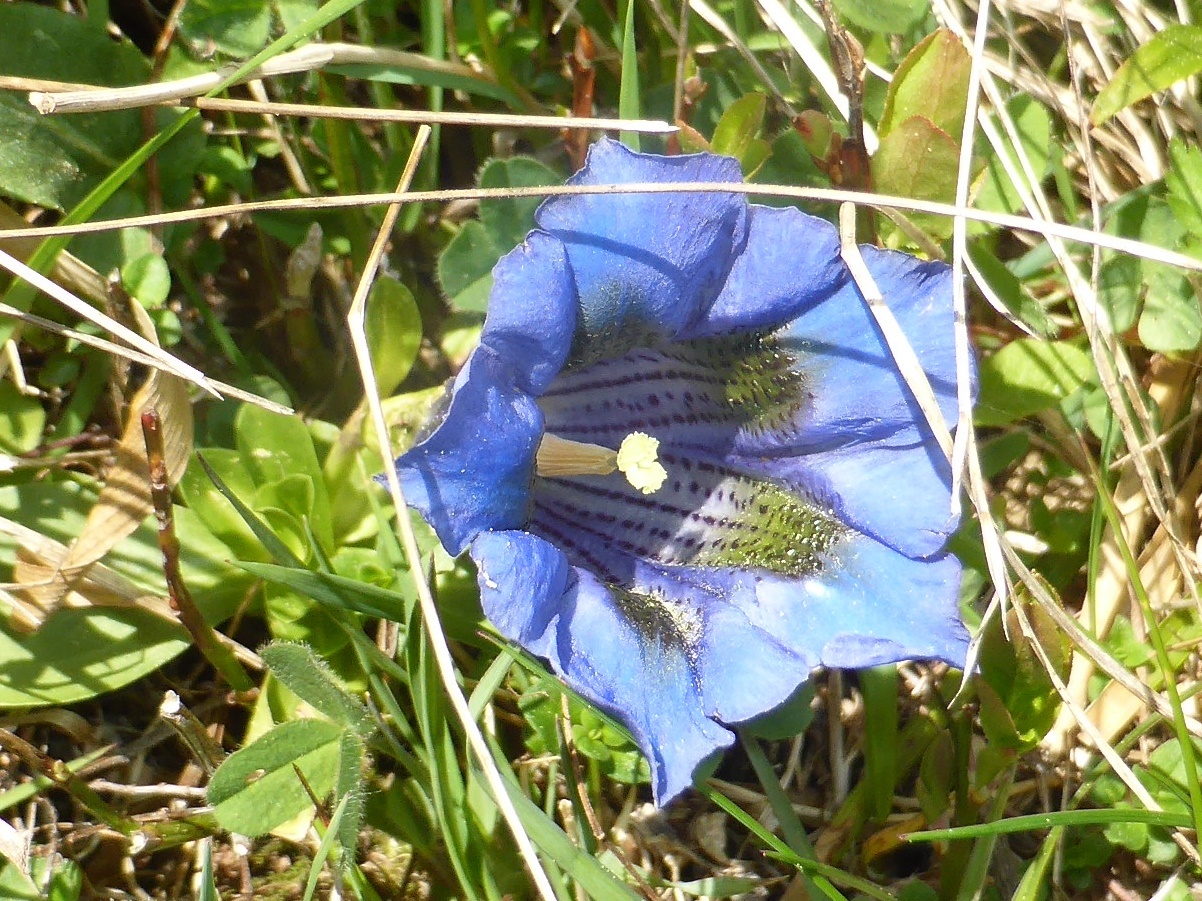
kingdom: Plantae
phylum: Tracheophyta
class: Magnoliopsida
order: Gentianales
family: Gentianaceae
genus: Gentiana
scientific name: Gentiana acaulis
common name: Trumpet gentian
